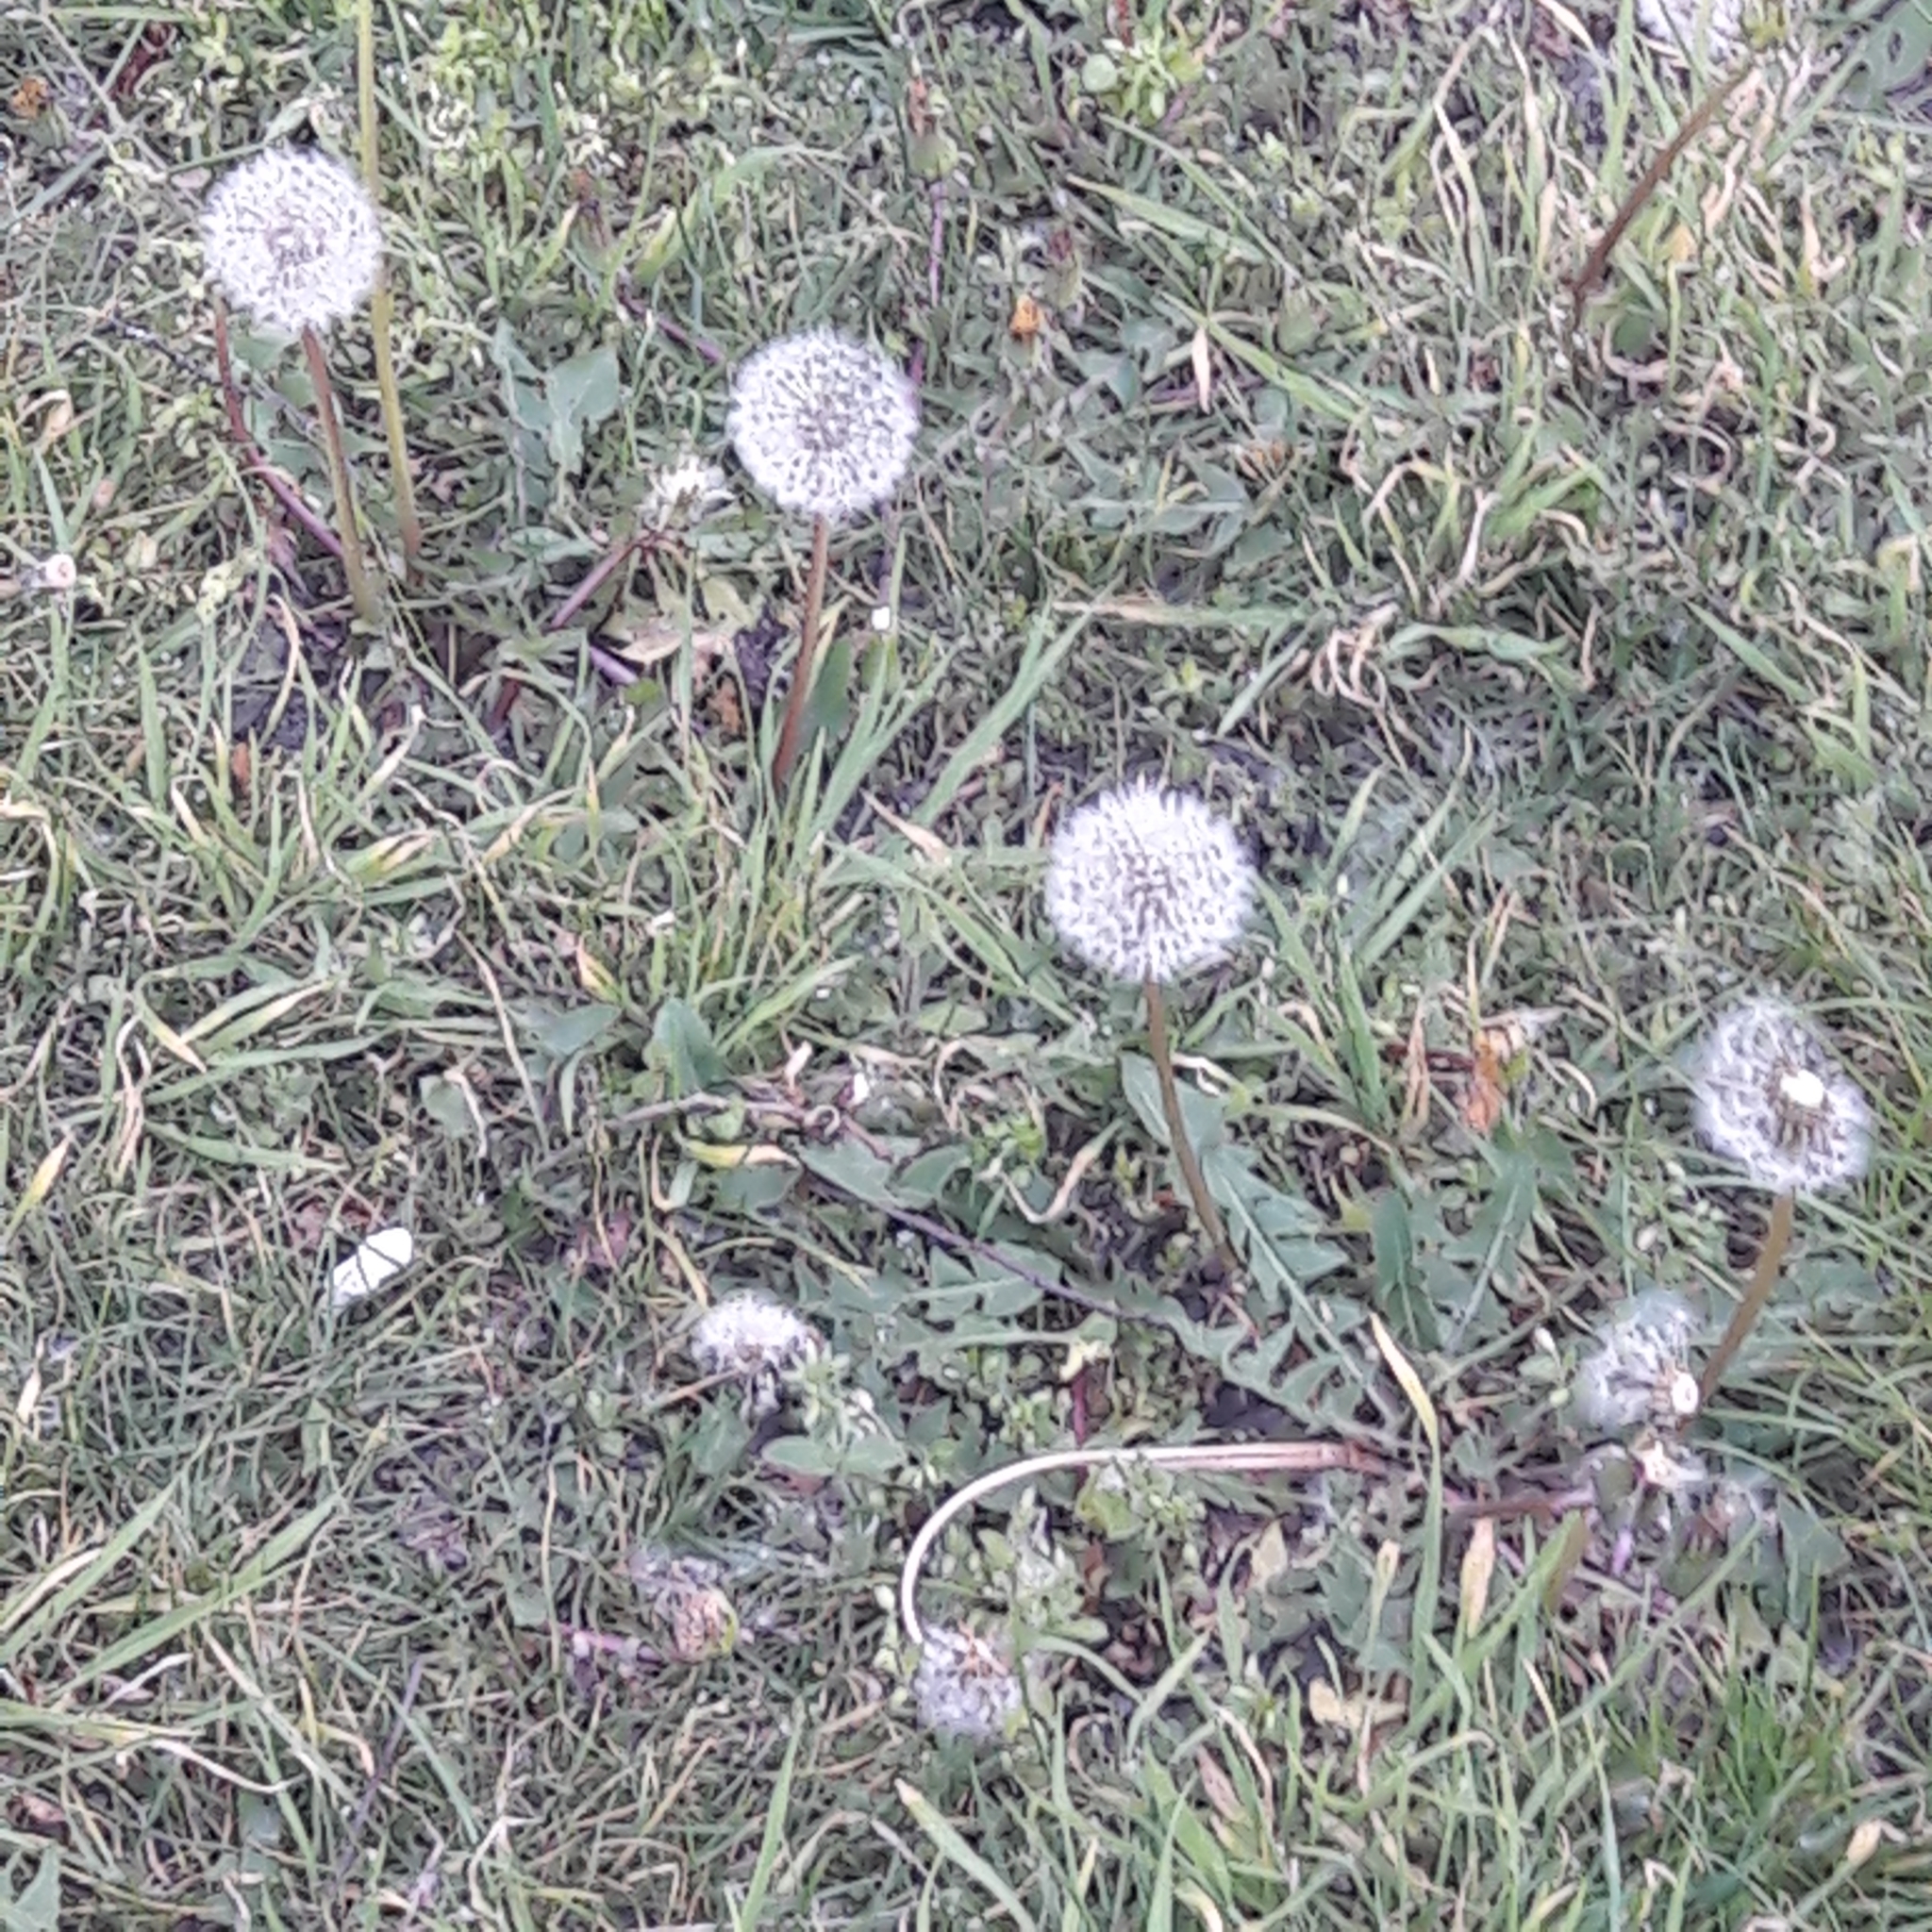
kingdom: Plantae
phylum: Tracheophyta
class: Magnoliopsida
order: Asterales
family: Asteraceae
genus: Taraxacum
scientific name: Taraxacum officinale
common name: Common dandelion
